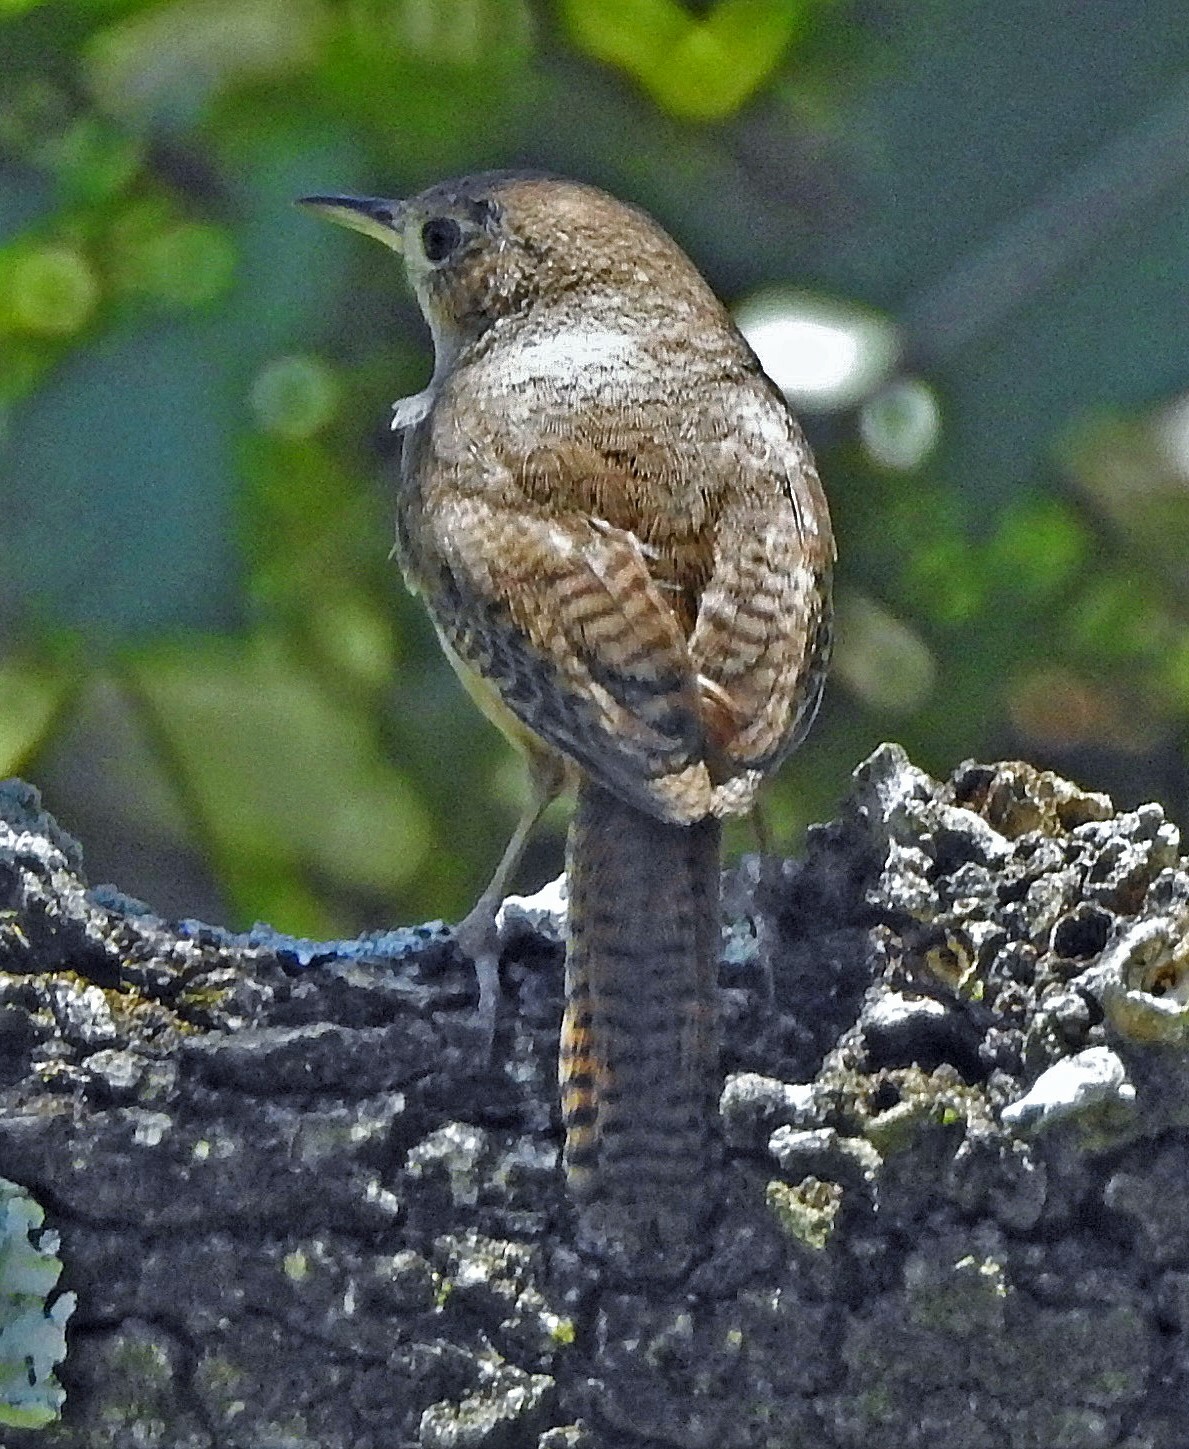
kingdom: Animalia
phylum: Chordata
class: Aves
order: Passeriformes
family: Troglodytidae
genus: Troglodytes
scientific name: Troglodytes aedon
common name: House wren
